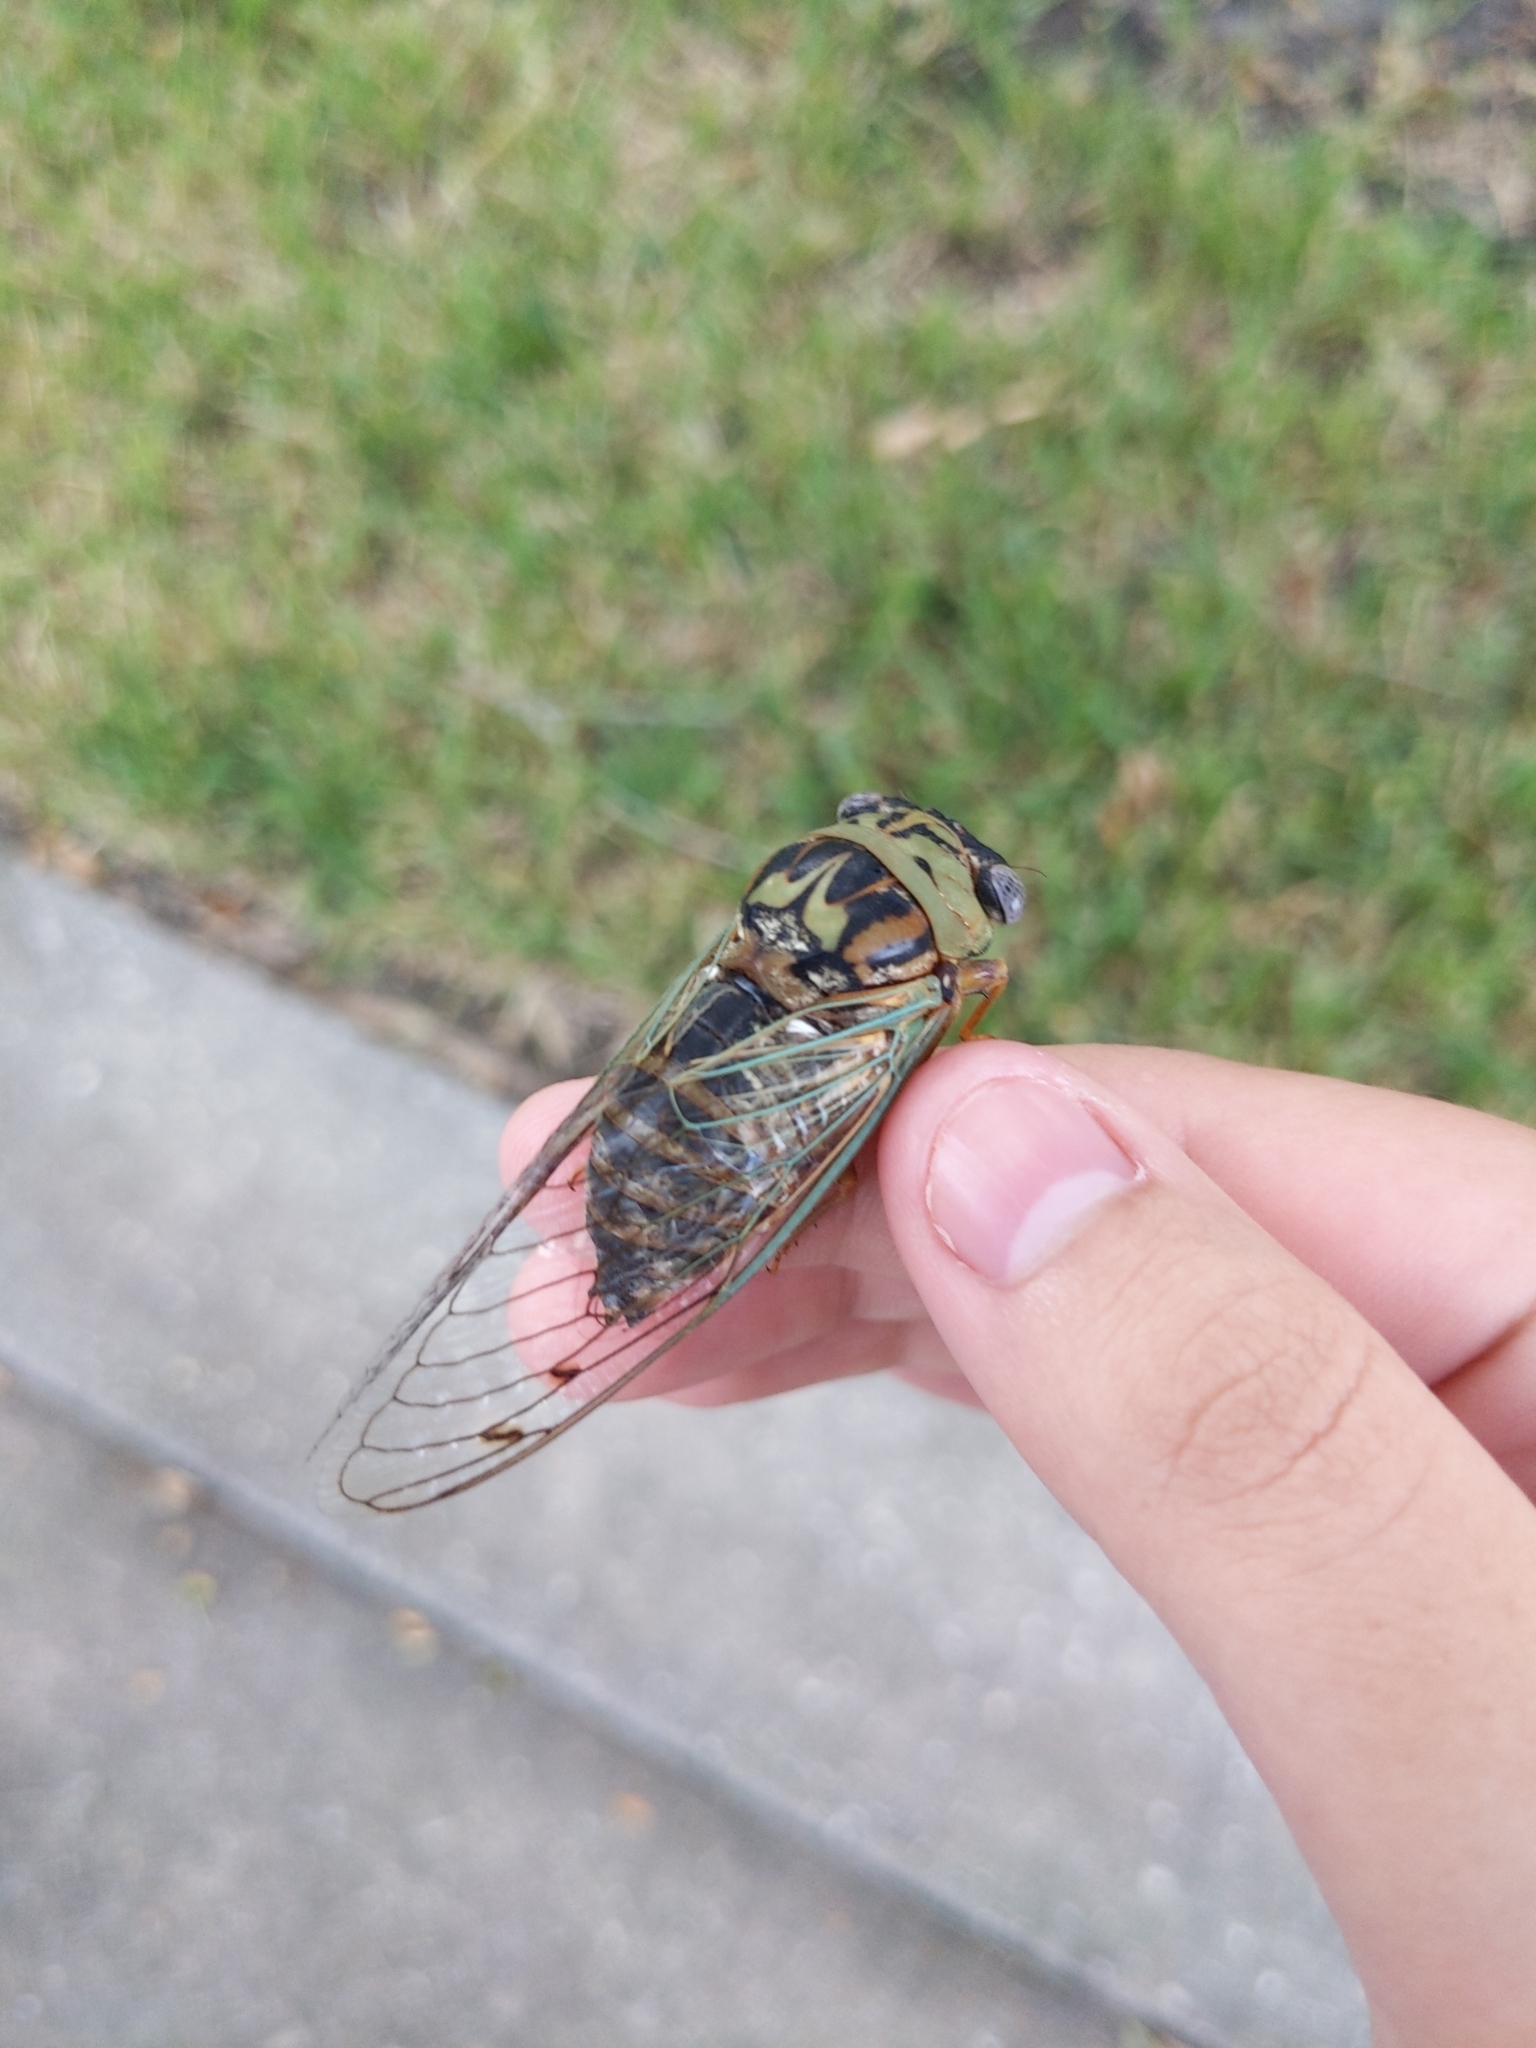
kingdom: Animalia
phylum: Arthropoda
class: Insecta
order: Hemiptera
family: Cicadidae
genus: Megatibicen
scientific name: Megatibicen resh
